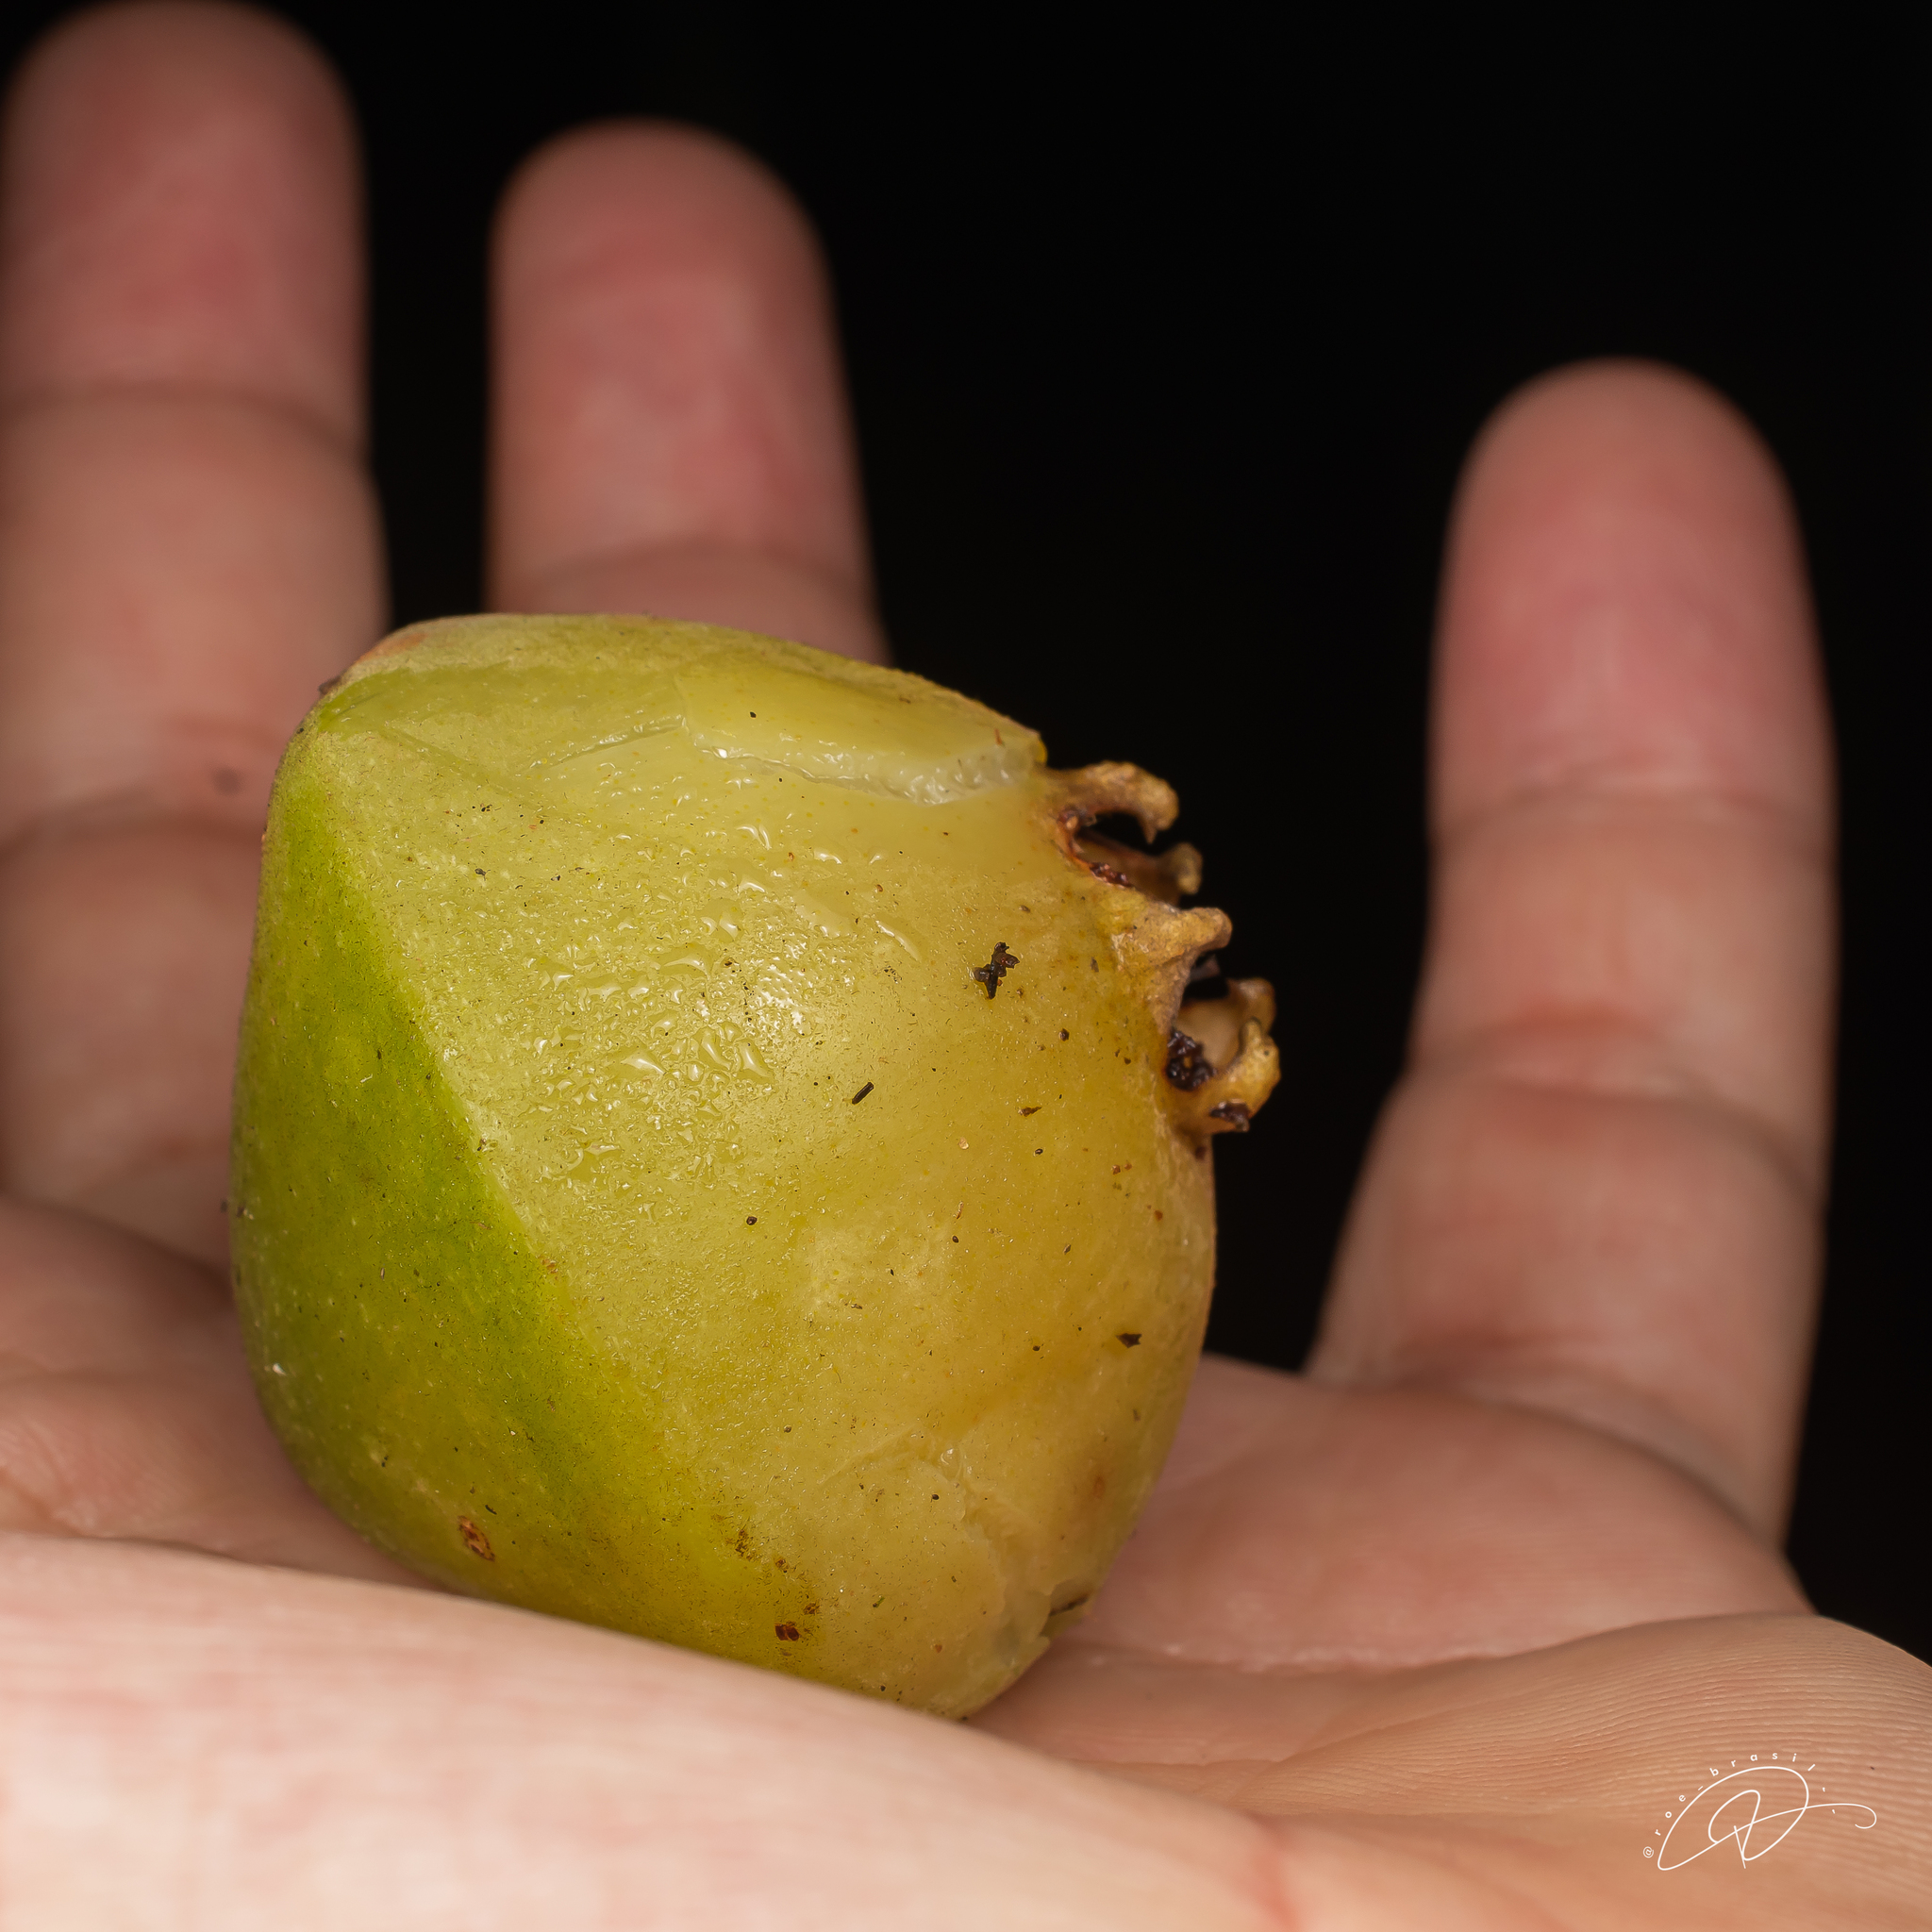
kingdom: Plantae
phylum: Tracheophyta
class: Magnoliopsida
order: Myrtales
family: Myrtaceae
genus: Campomanesia
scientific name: Campomanesia phaea
